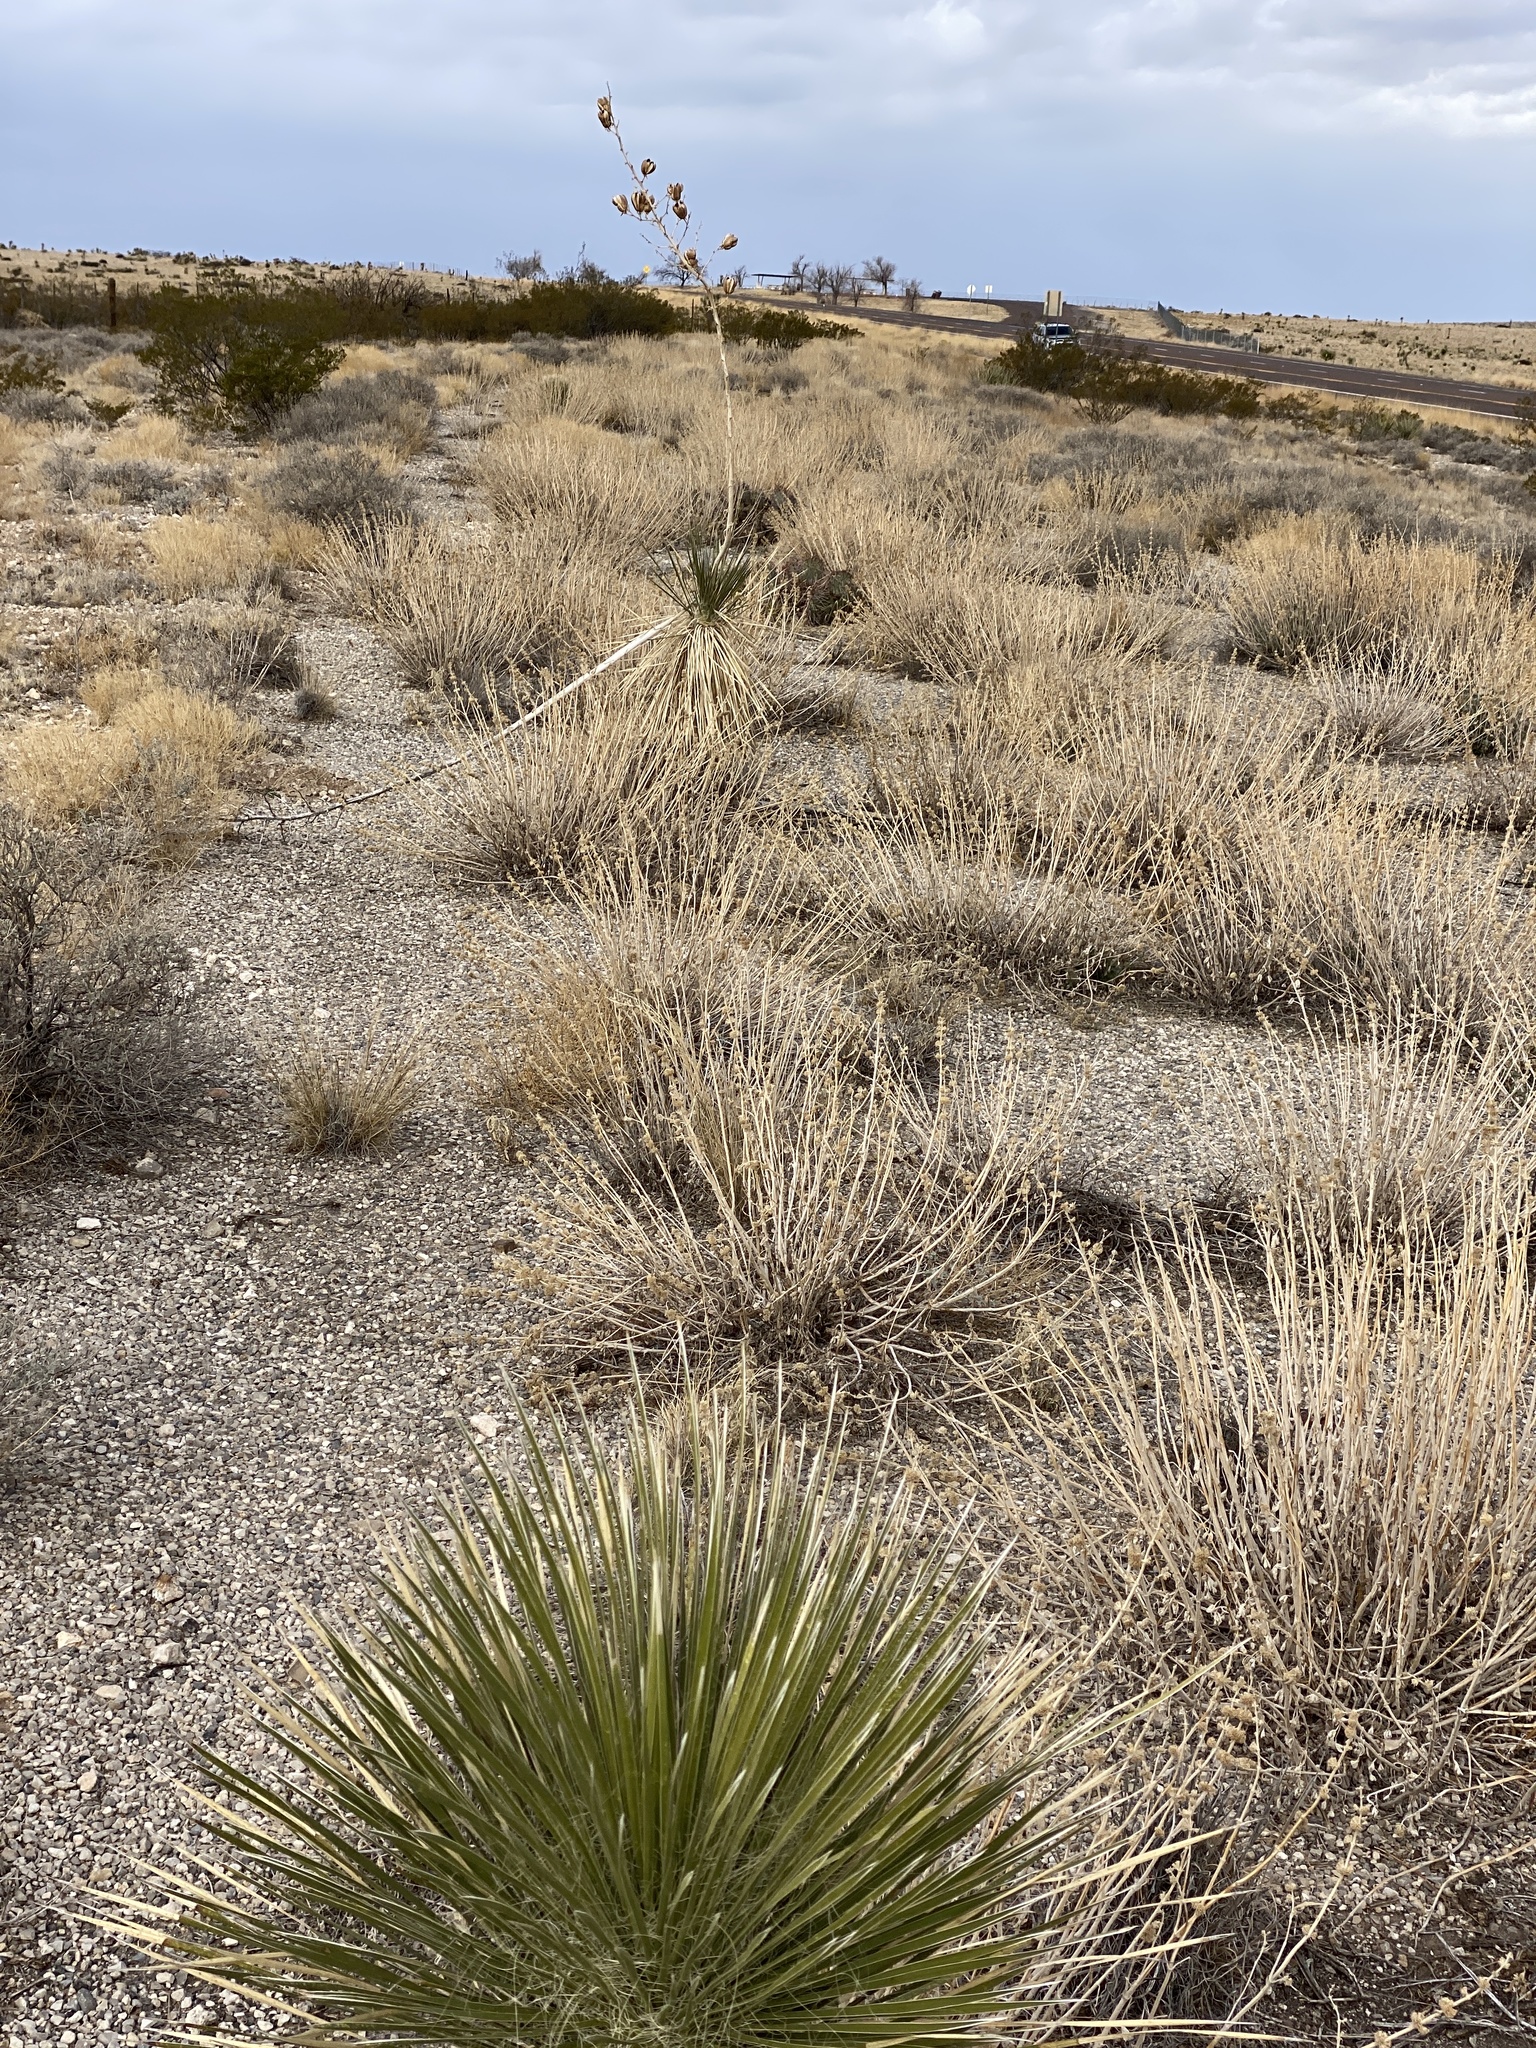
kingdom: Plantae
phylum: Tracheophyta
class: Liliopsida
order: Asparagales
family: Asparagaceae
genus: Yucca
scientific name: Yucca elata
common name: Palmella
